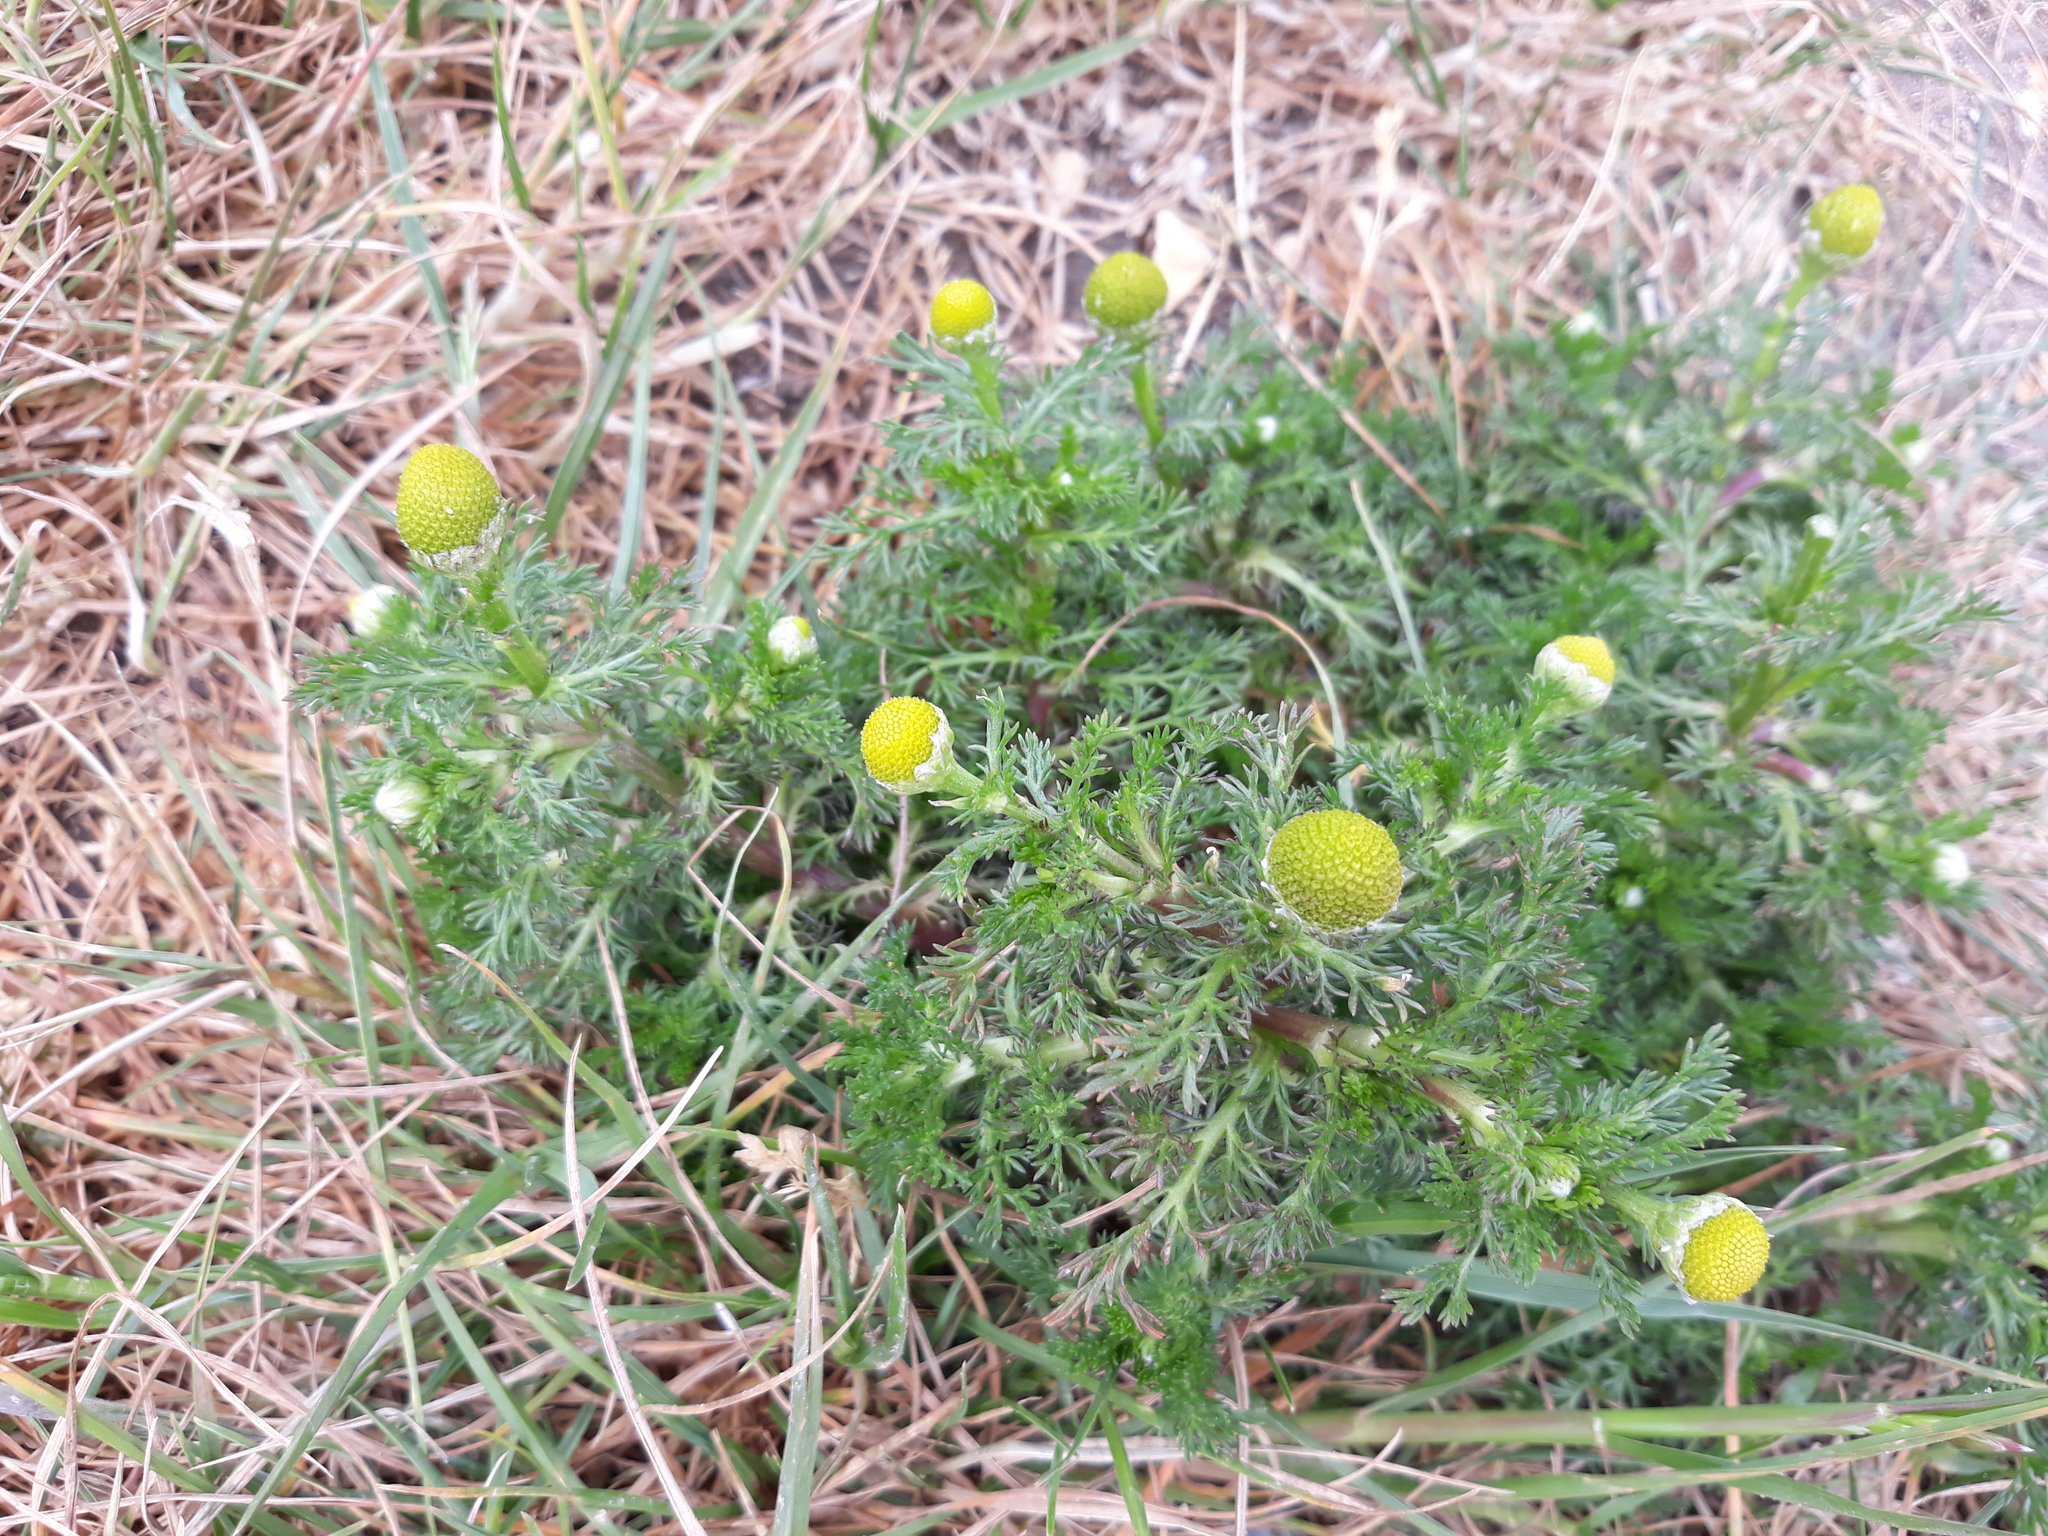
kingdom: Plantae
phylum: Tracheophyta
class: Magnoliopsida
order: Asterales
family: Asteraceae
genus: Matricaria
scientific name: Matricaria discoidea
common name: Disc mayweed
